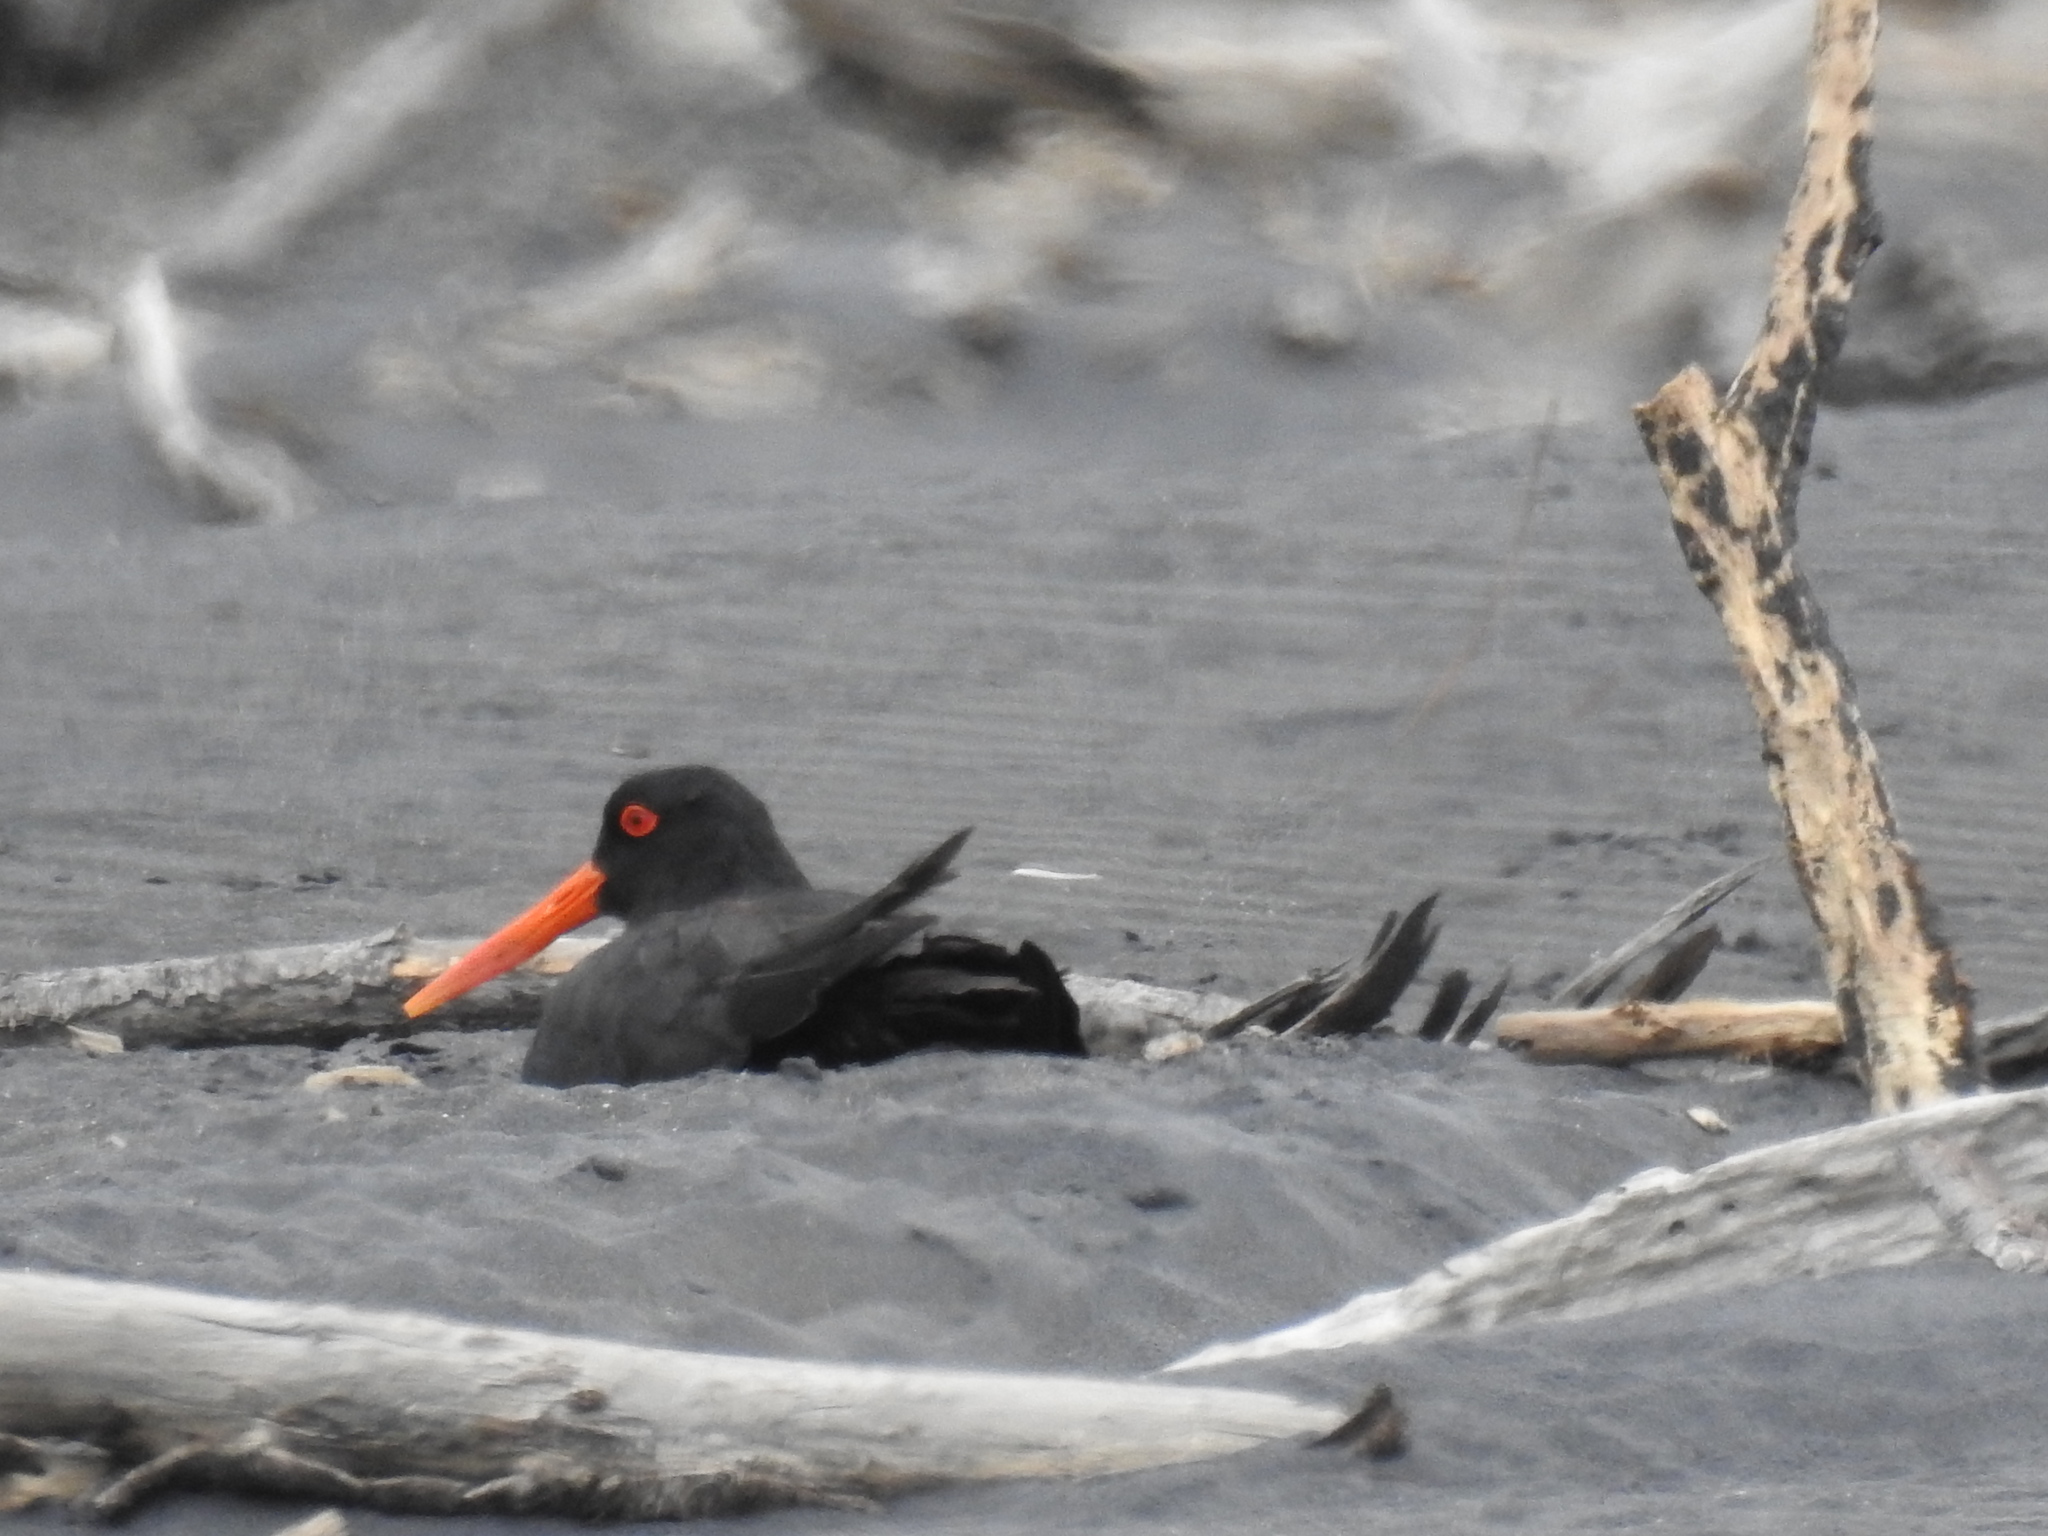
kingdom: Animalia
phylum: Chordata
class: Aves
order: Charadriiformes
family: Haematopodidae
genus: Haematopus
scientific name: Haematopus unicolor
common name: Variable oystercatcher
